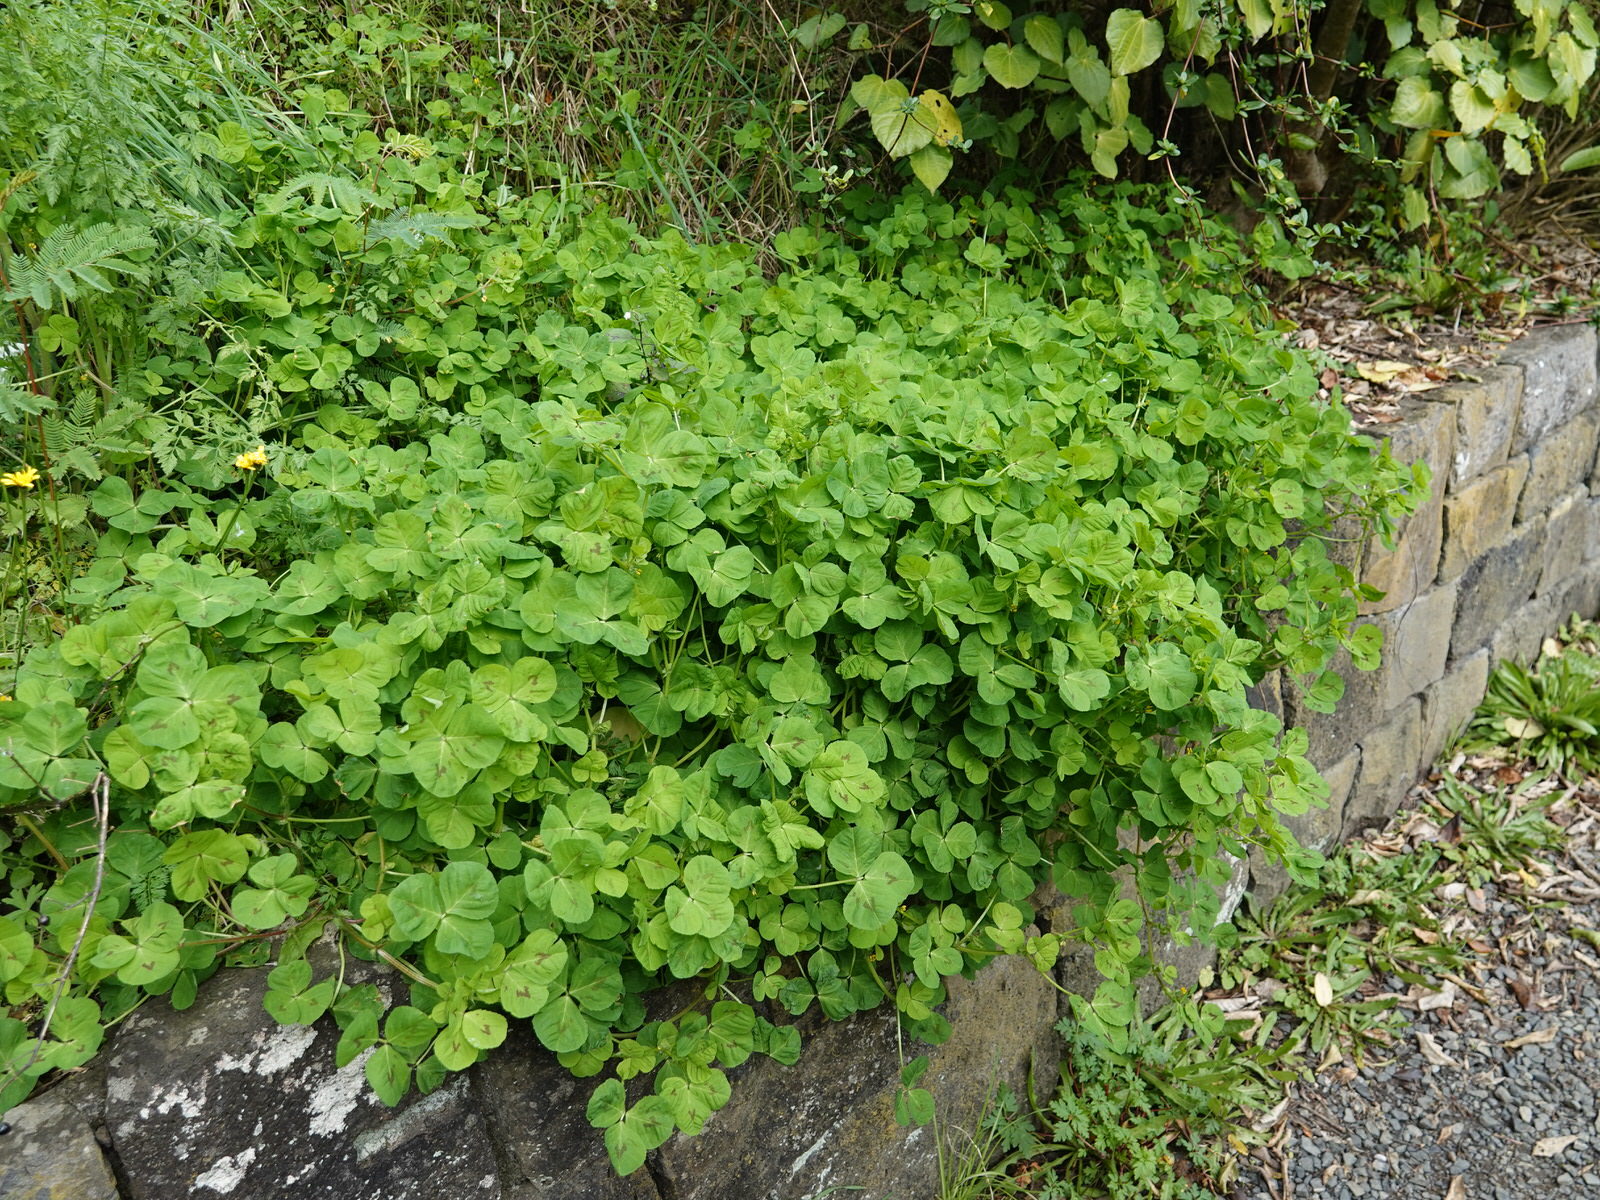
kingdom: Plantae
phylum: Tracheophyta
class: Magnoliopsida
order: Fabales
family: Fabaceae
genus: Medicago
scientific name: Medicago arabica
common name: Spotted medick
